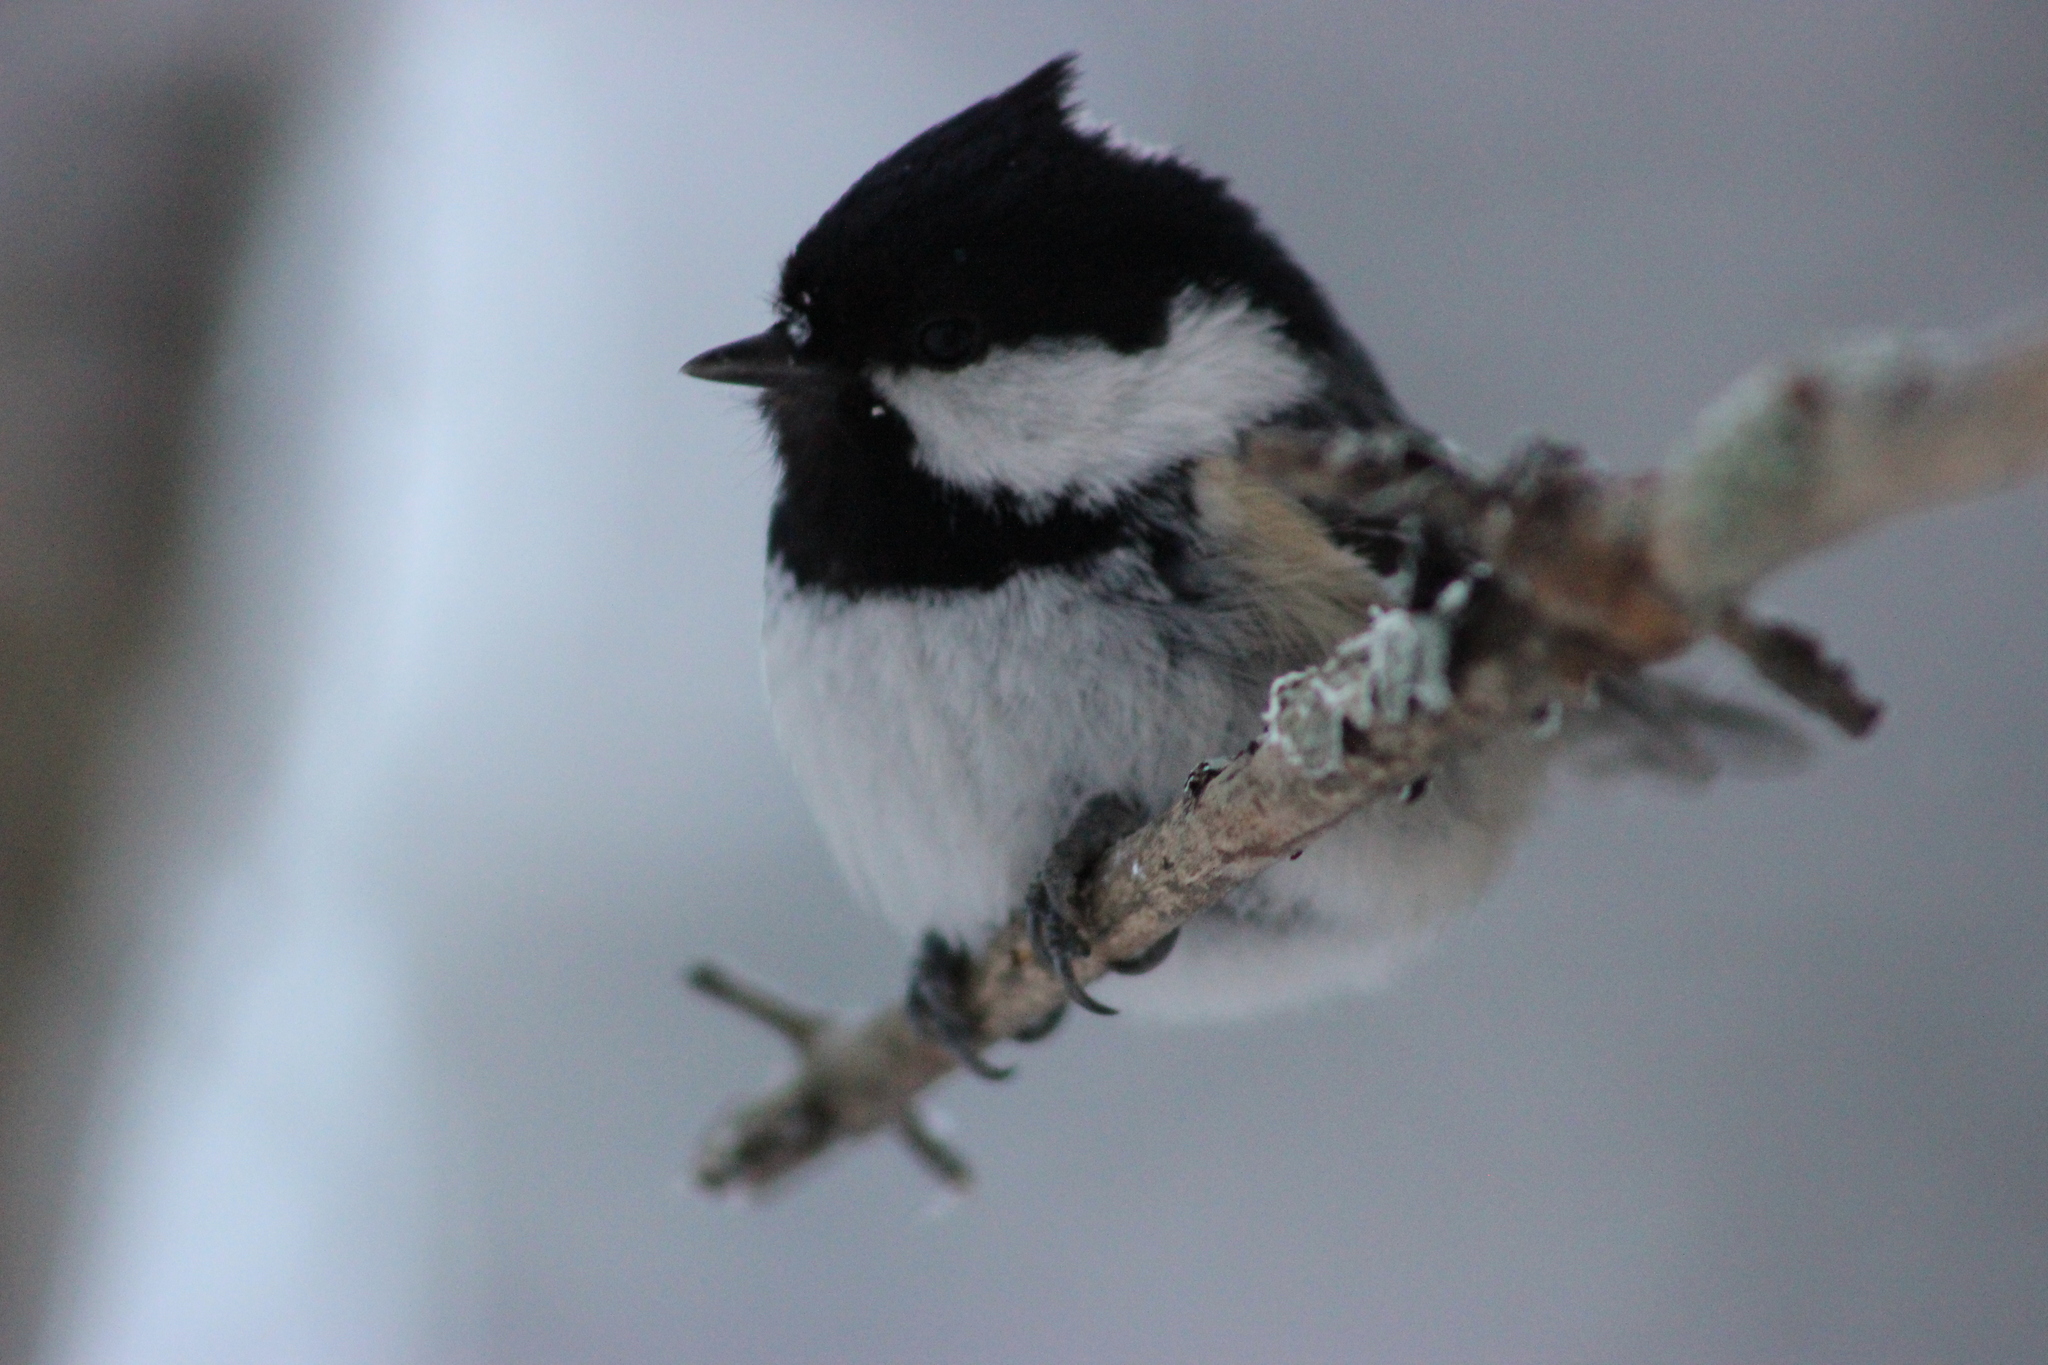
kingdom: Animalia
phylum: Chordata
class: Aves
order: Passeriformes
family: Paridae
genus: Periparus
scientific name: Periparus ater
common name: Coal tit
